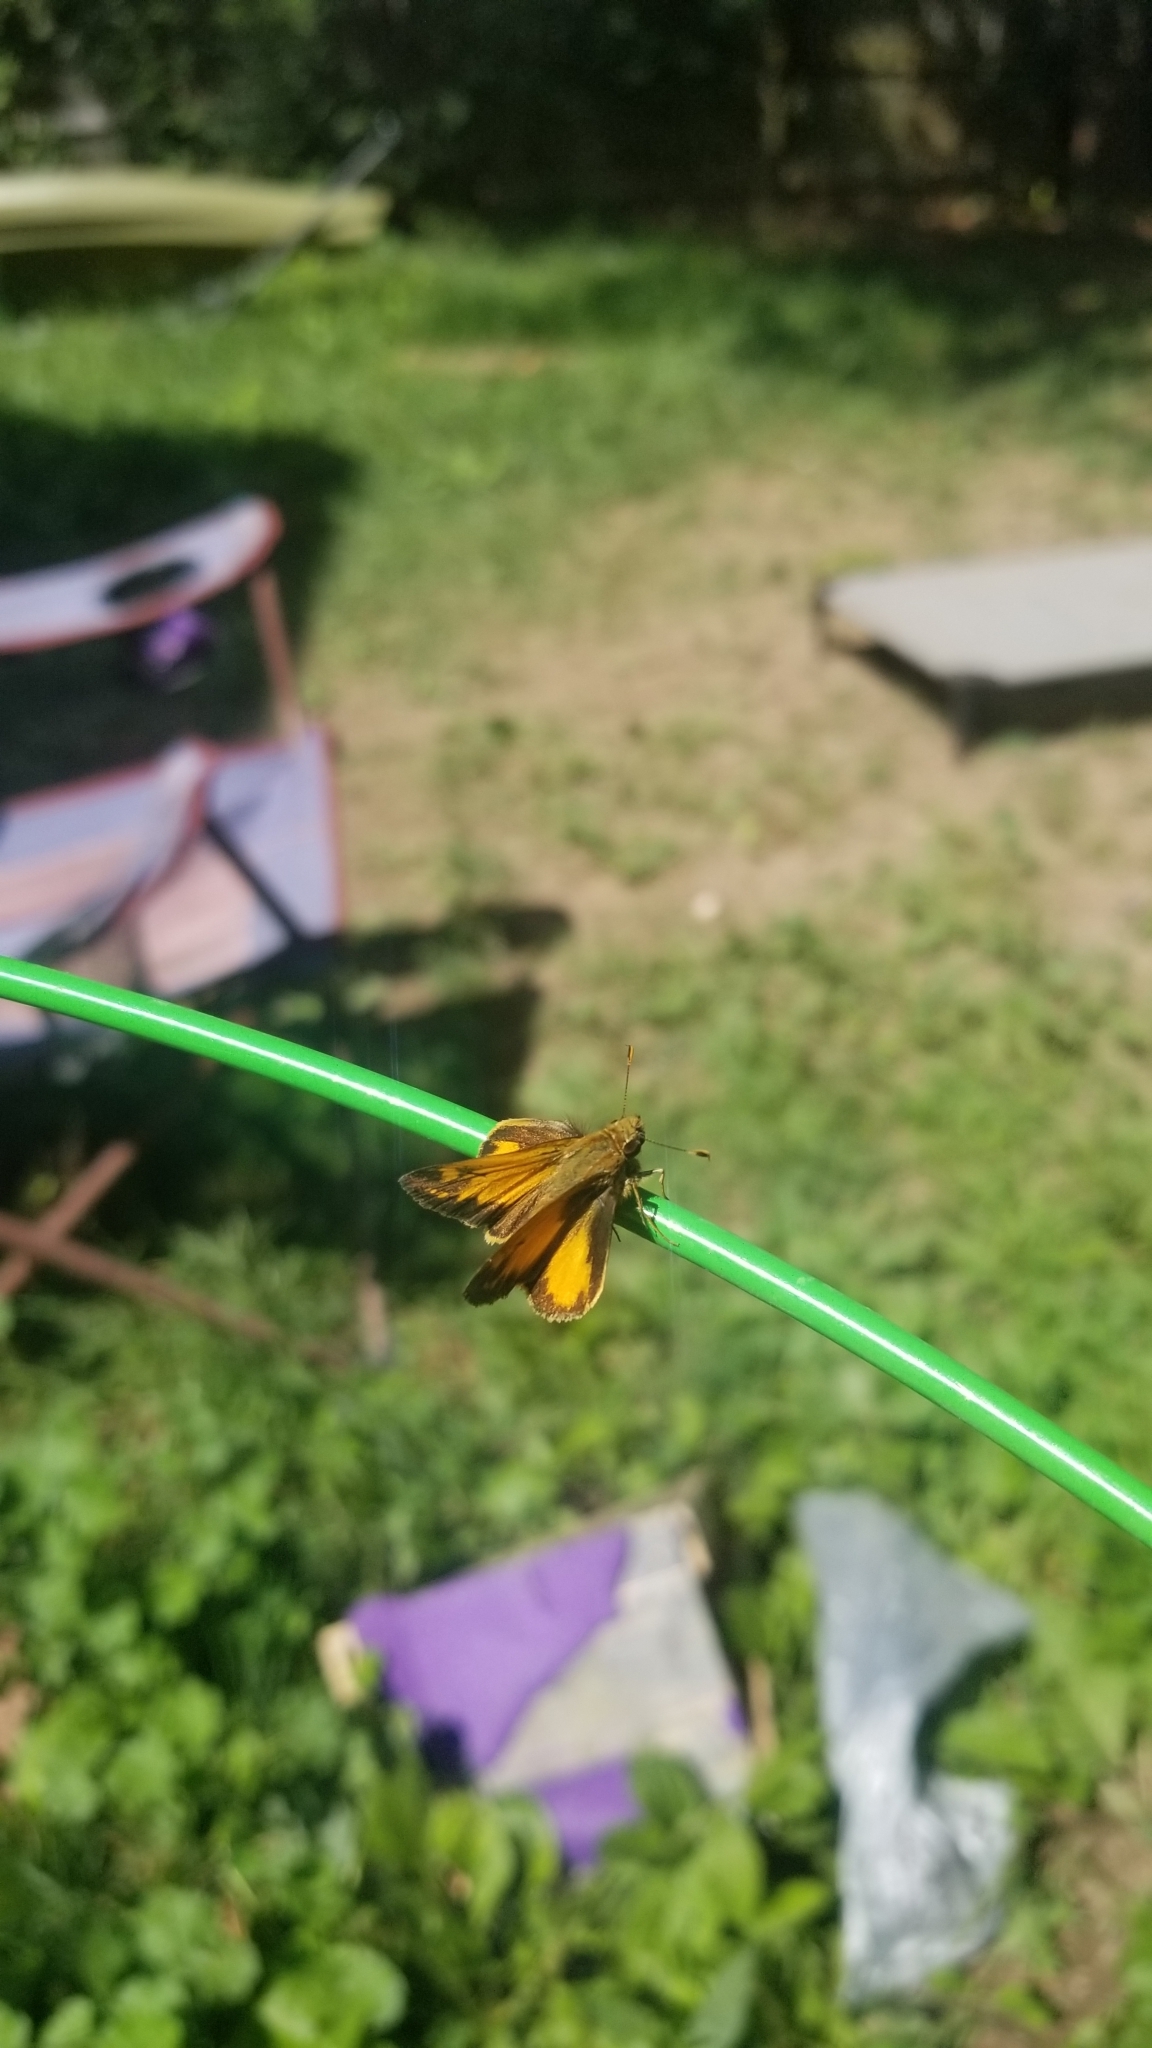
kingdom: Animalia
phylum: Arthropoda
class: Insecta
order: Lepidoptera
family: Hesperiidae
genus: Lon
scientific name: Lon zabulon
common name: Zabulon skipper
